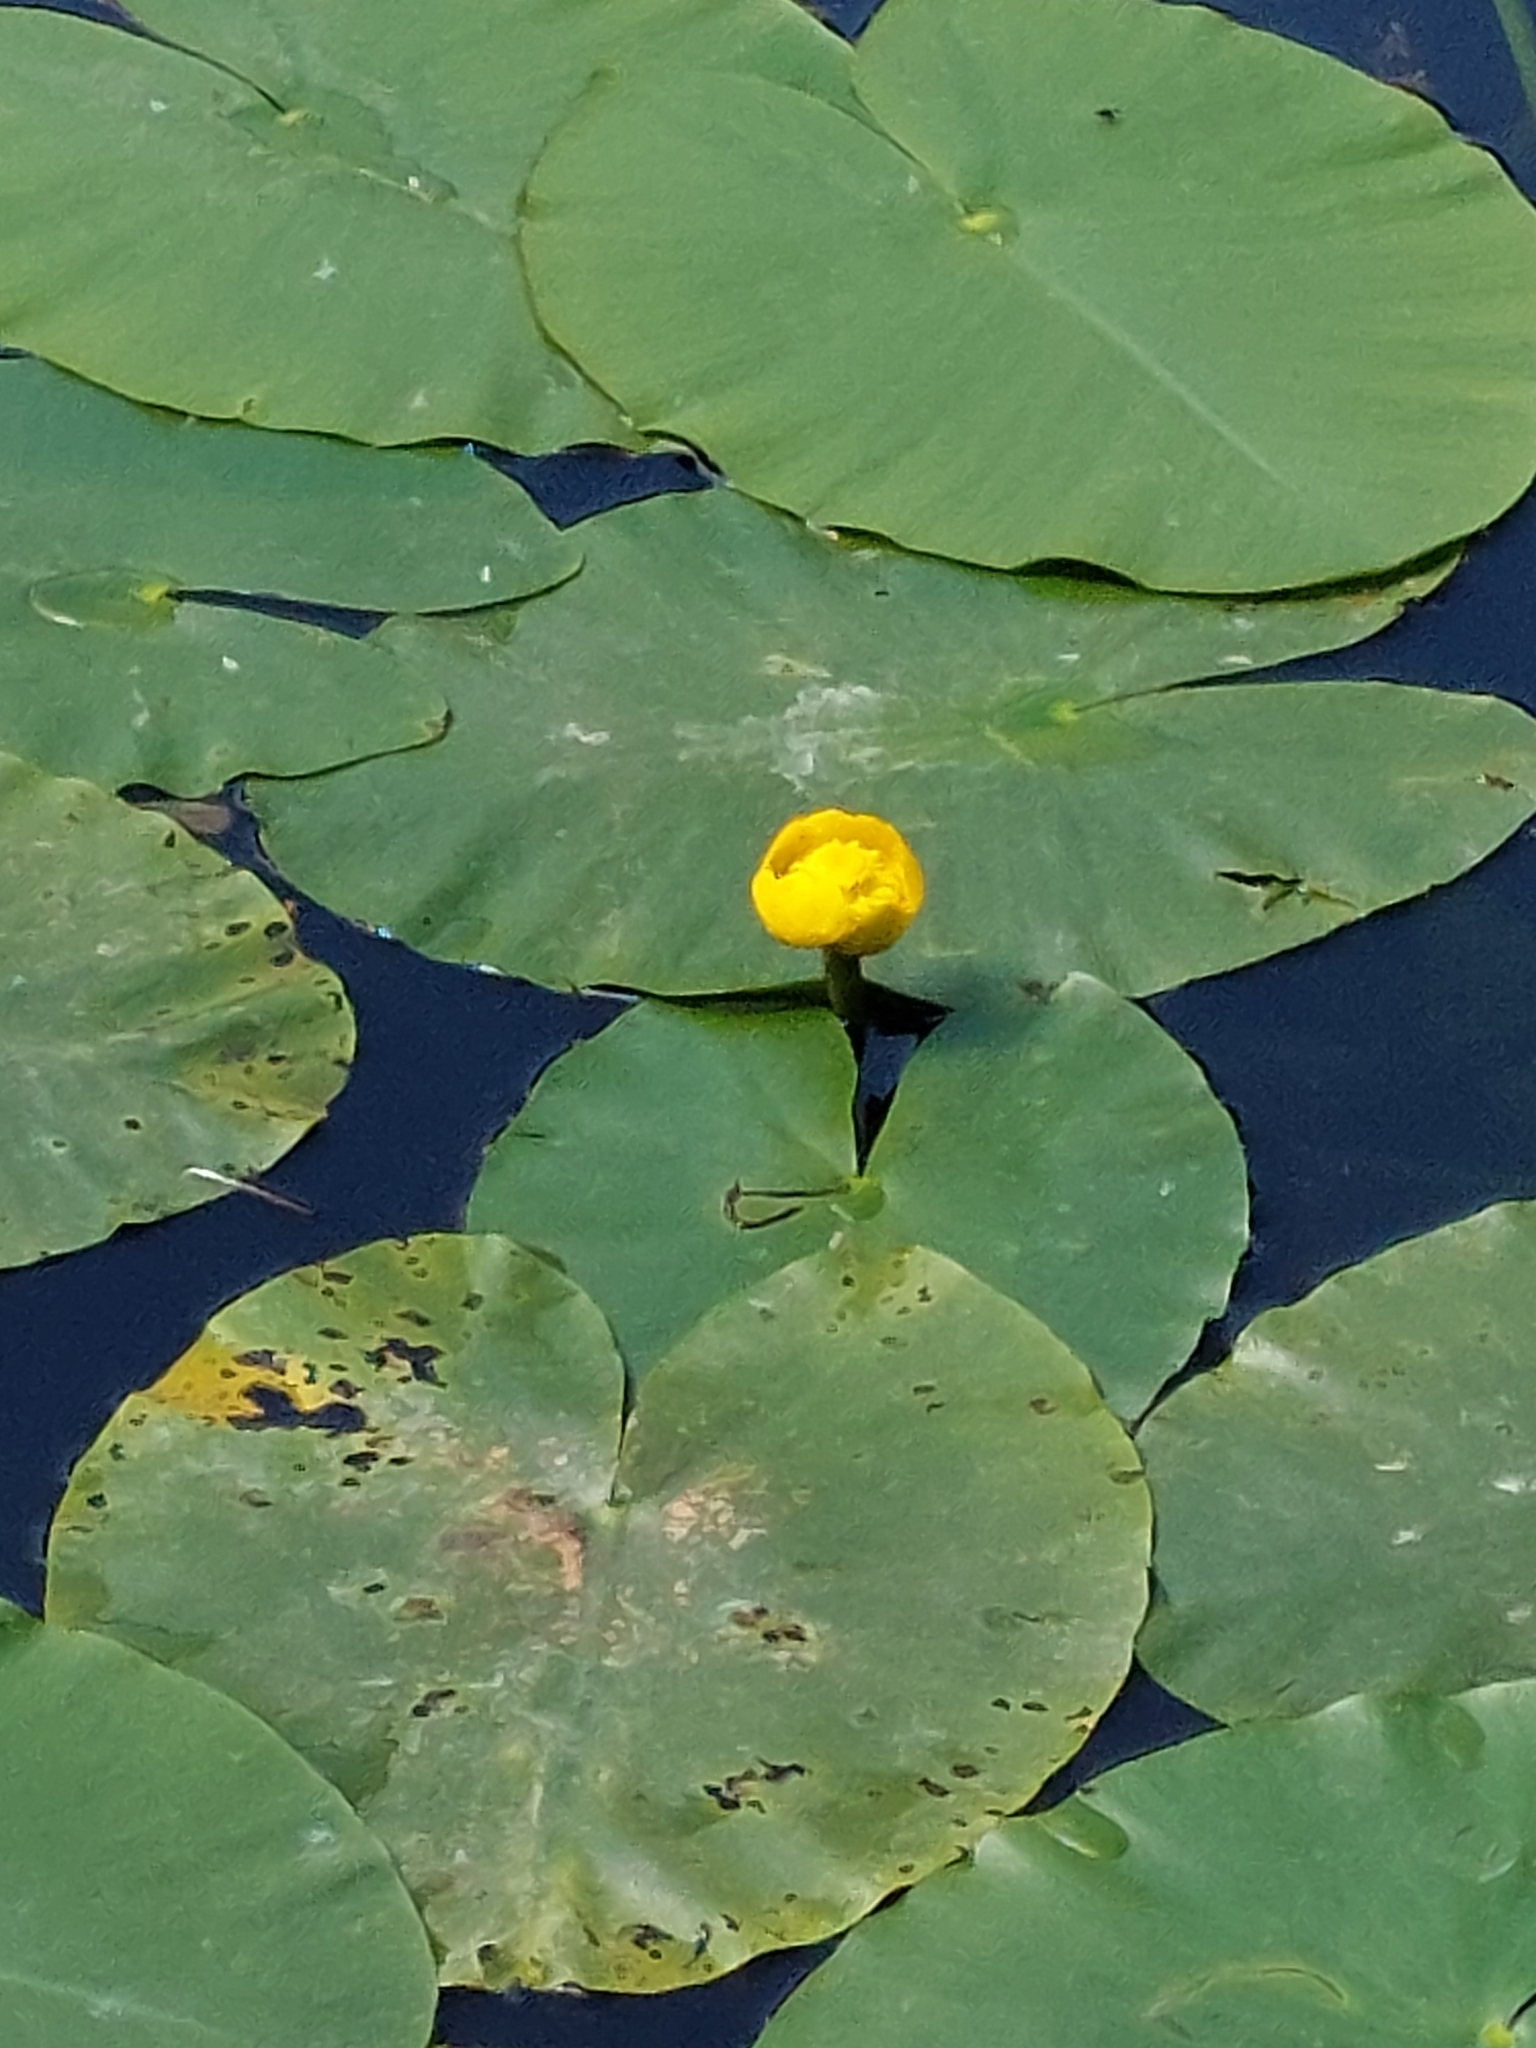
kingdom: Plantae
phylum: Tracheophyta
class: Magnoliopsida
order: Nymphaeales
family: Nymphaeaceae
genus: Nuphar
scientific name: Nuphar lutea
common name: Yellow water-lily
